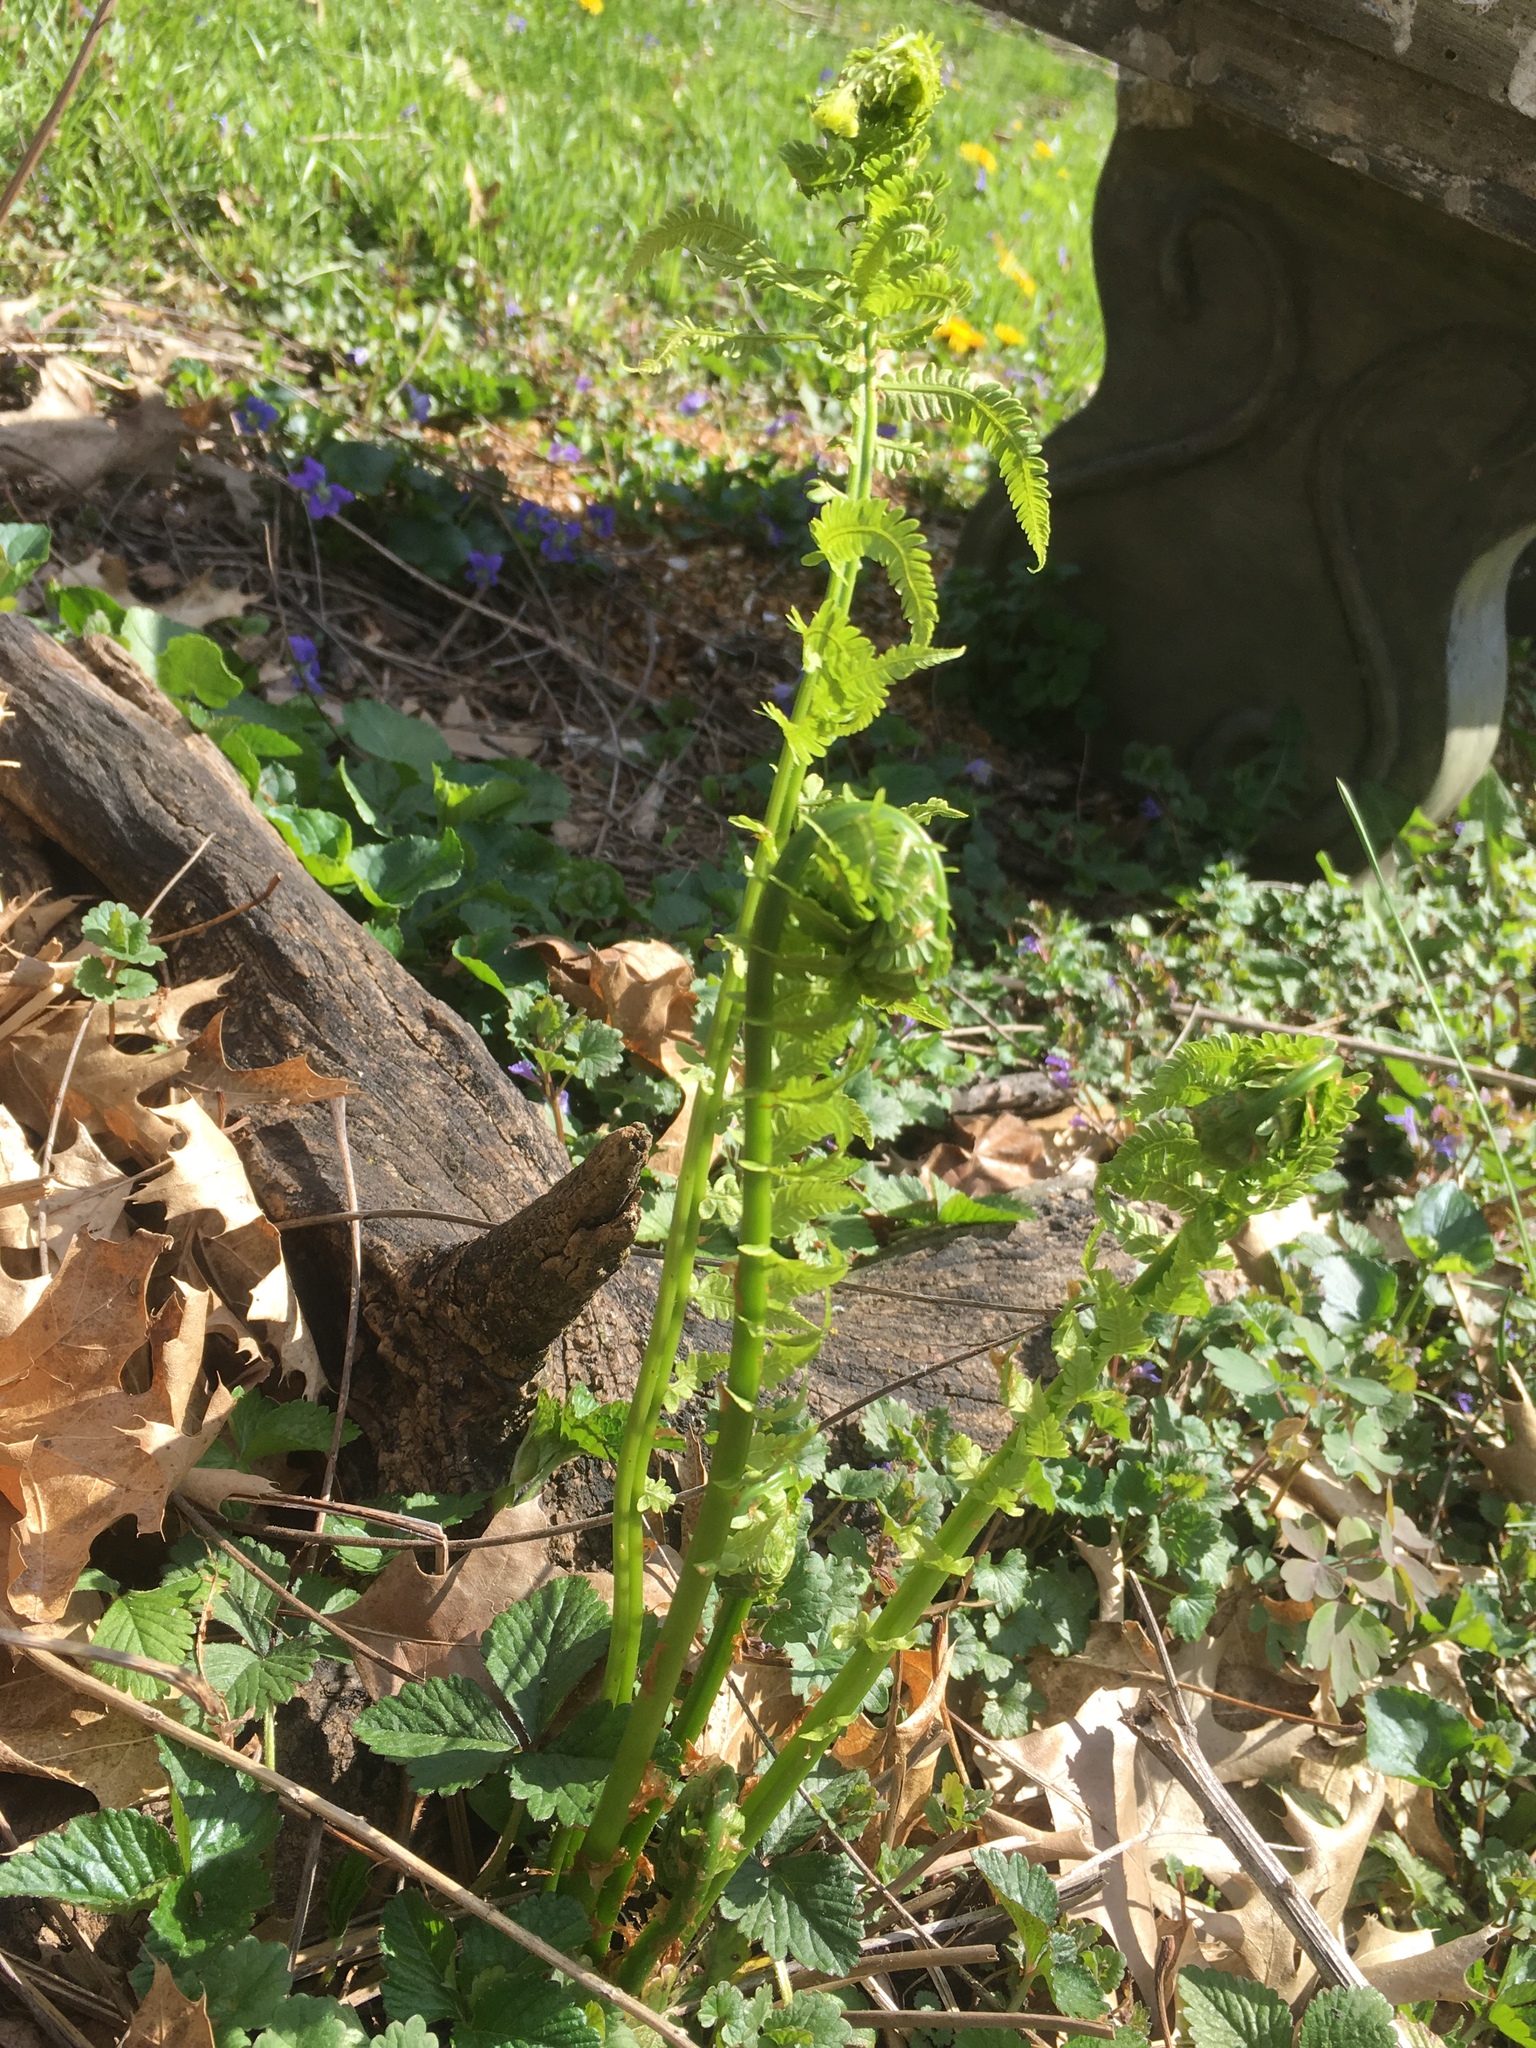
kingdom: Plantae
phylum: Tracheophyta
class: Polypodiopsida
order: Polypodiales
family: Onocleaceae
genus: Matteuccia
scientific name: Matteuccia struthiopteris
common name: Ostrich fern
